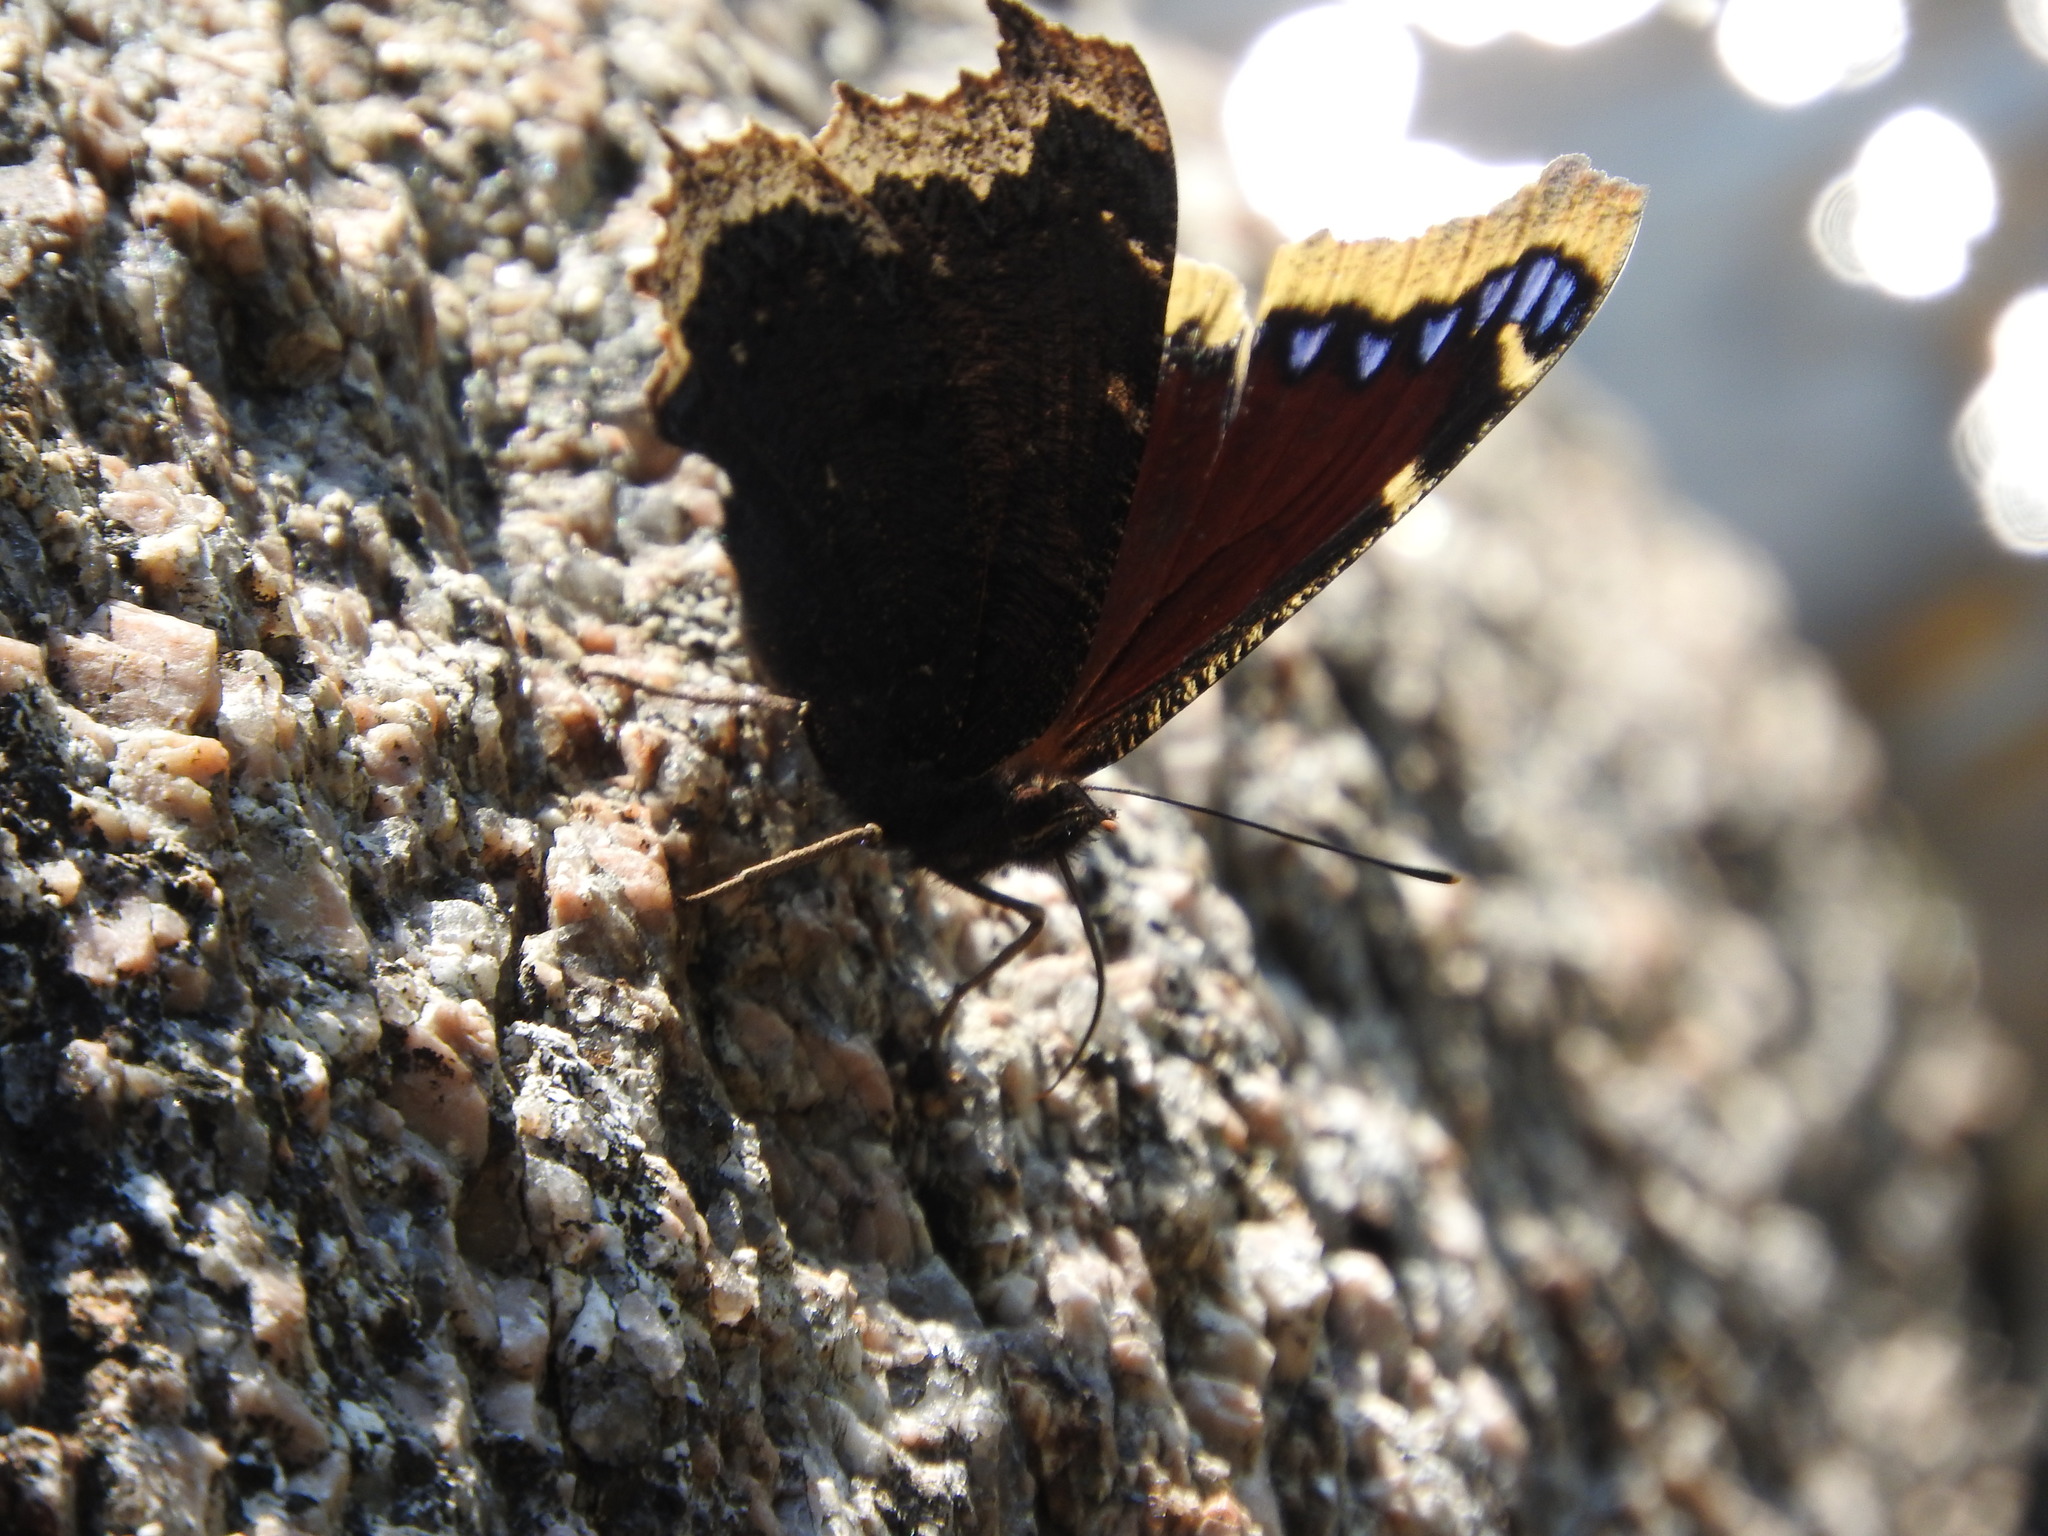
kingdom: Animalia
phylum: Arthropoda
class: Insecta
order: Lepidoptera
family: Nymphalidae
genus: Nymphalis
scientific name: Nymphalis antiopa
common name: Camberwell beauty
